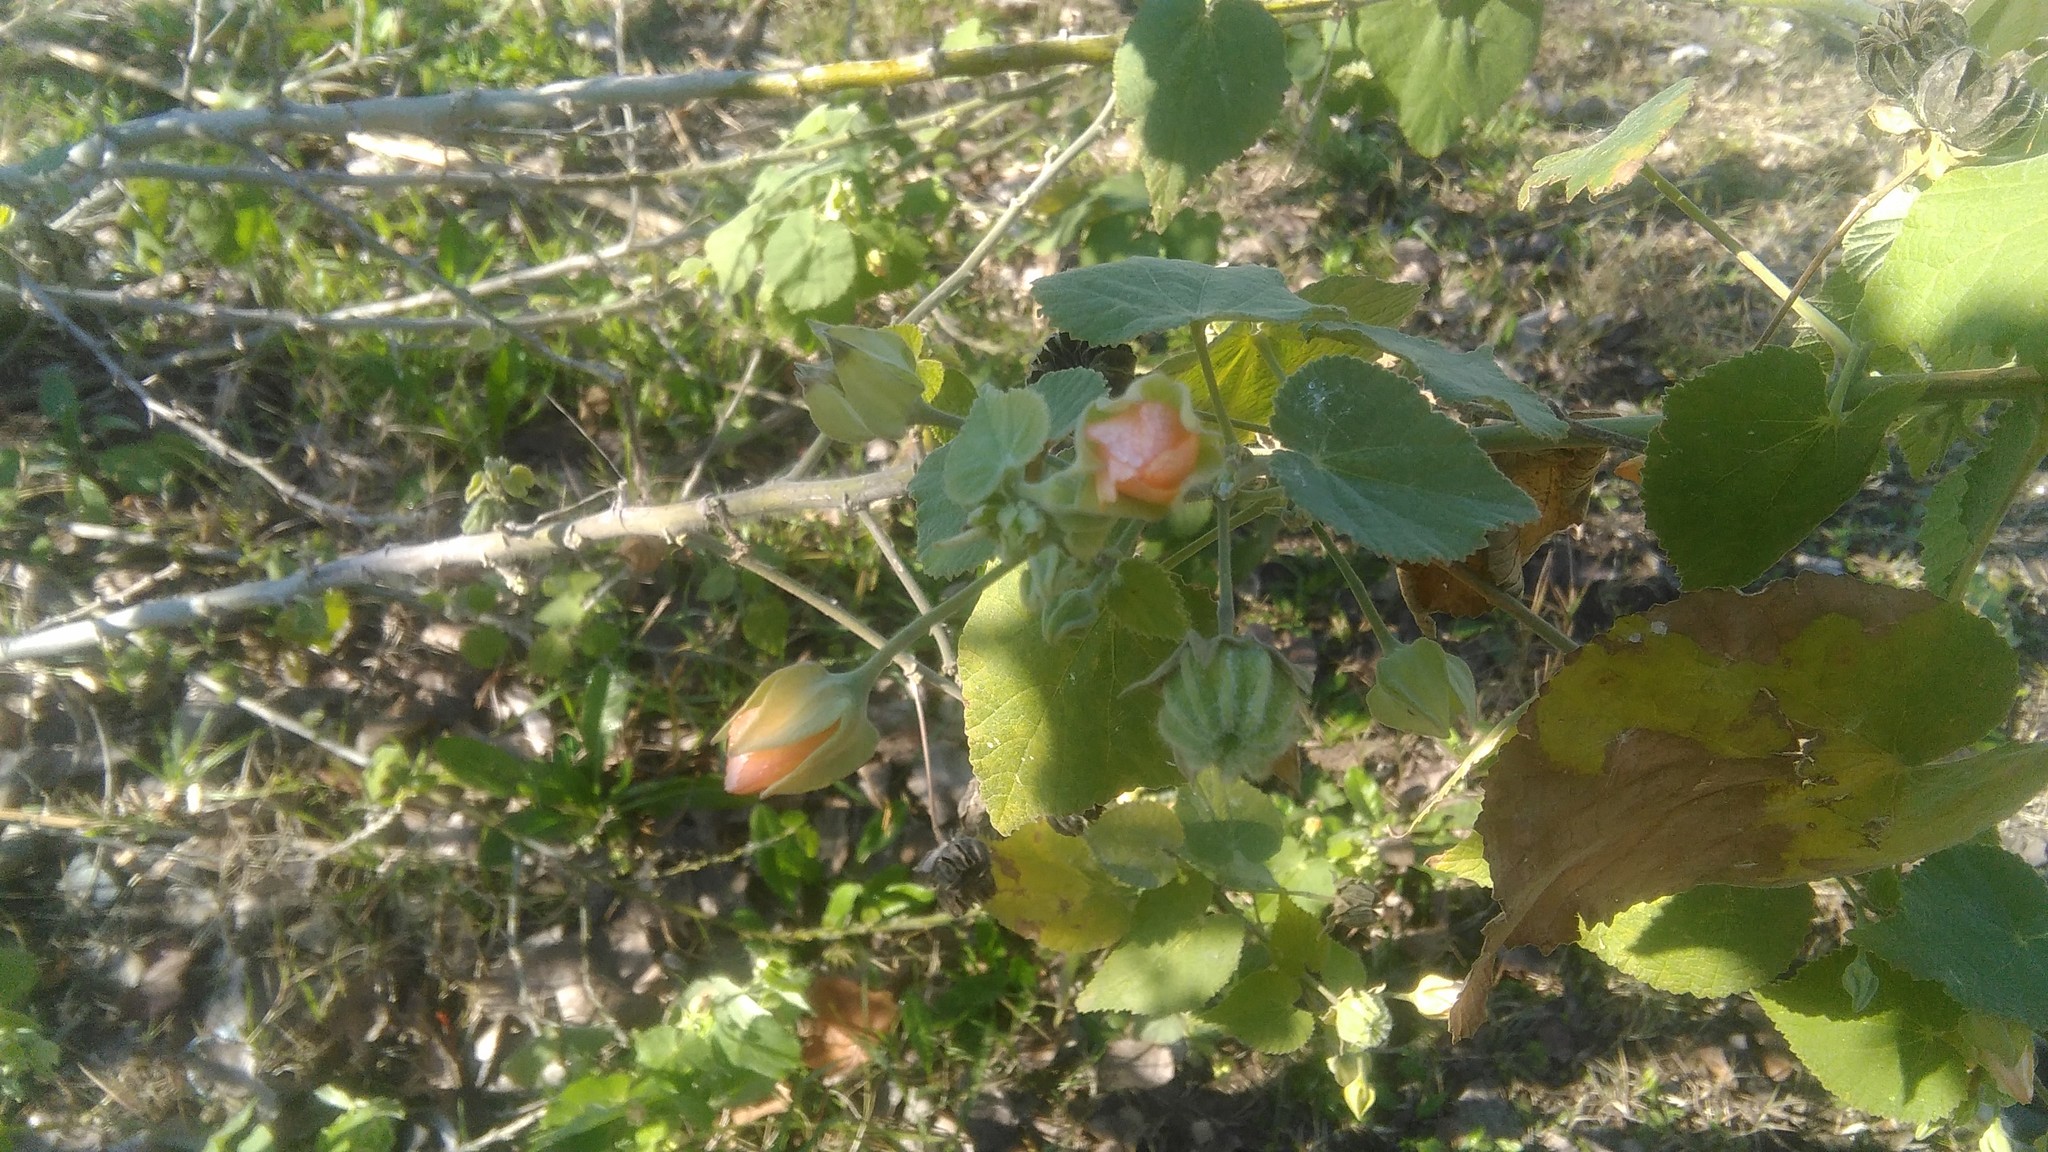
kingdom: Plantae
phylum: Tracheophyta
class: Magnoliopsida
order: Malvales
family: Malvaceae
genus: Callianthe
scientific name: Callianthe pauciflora
